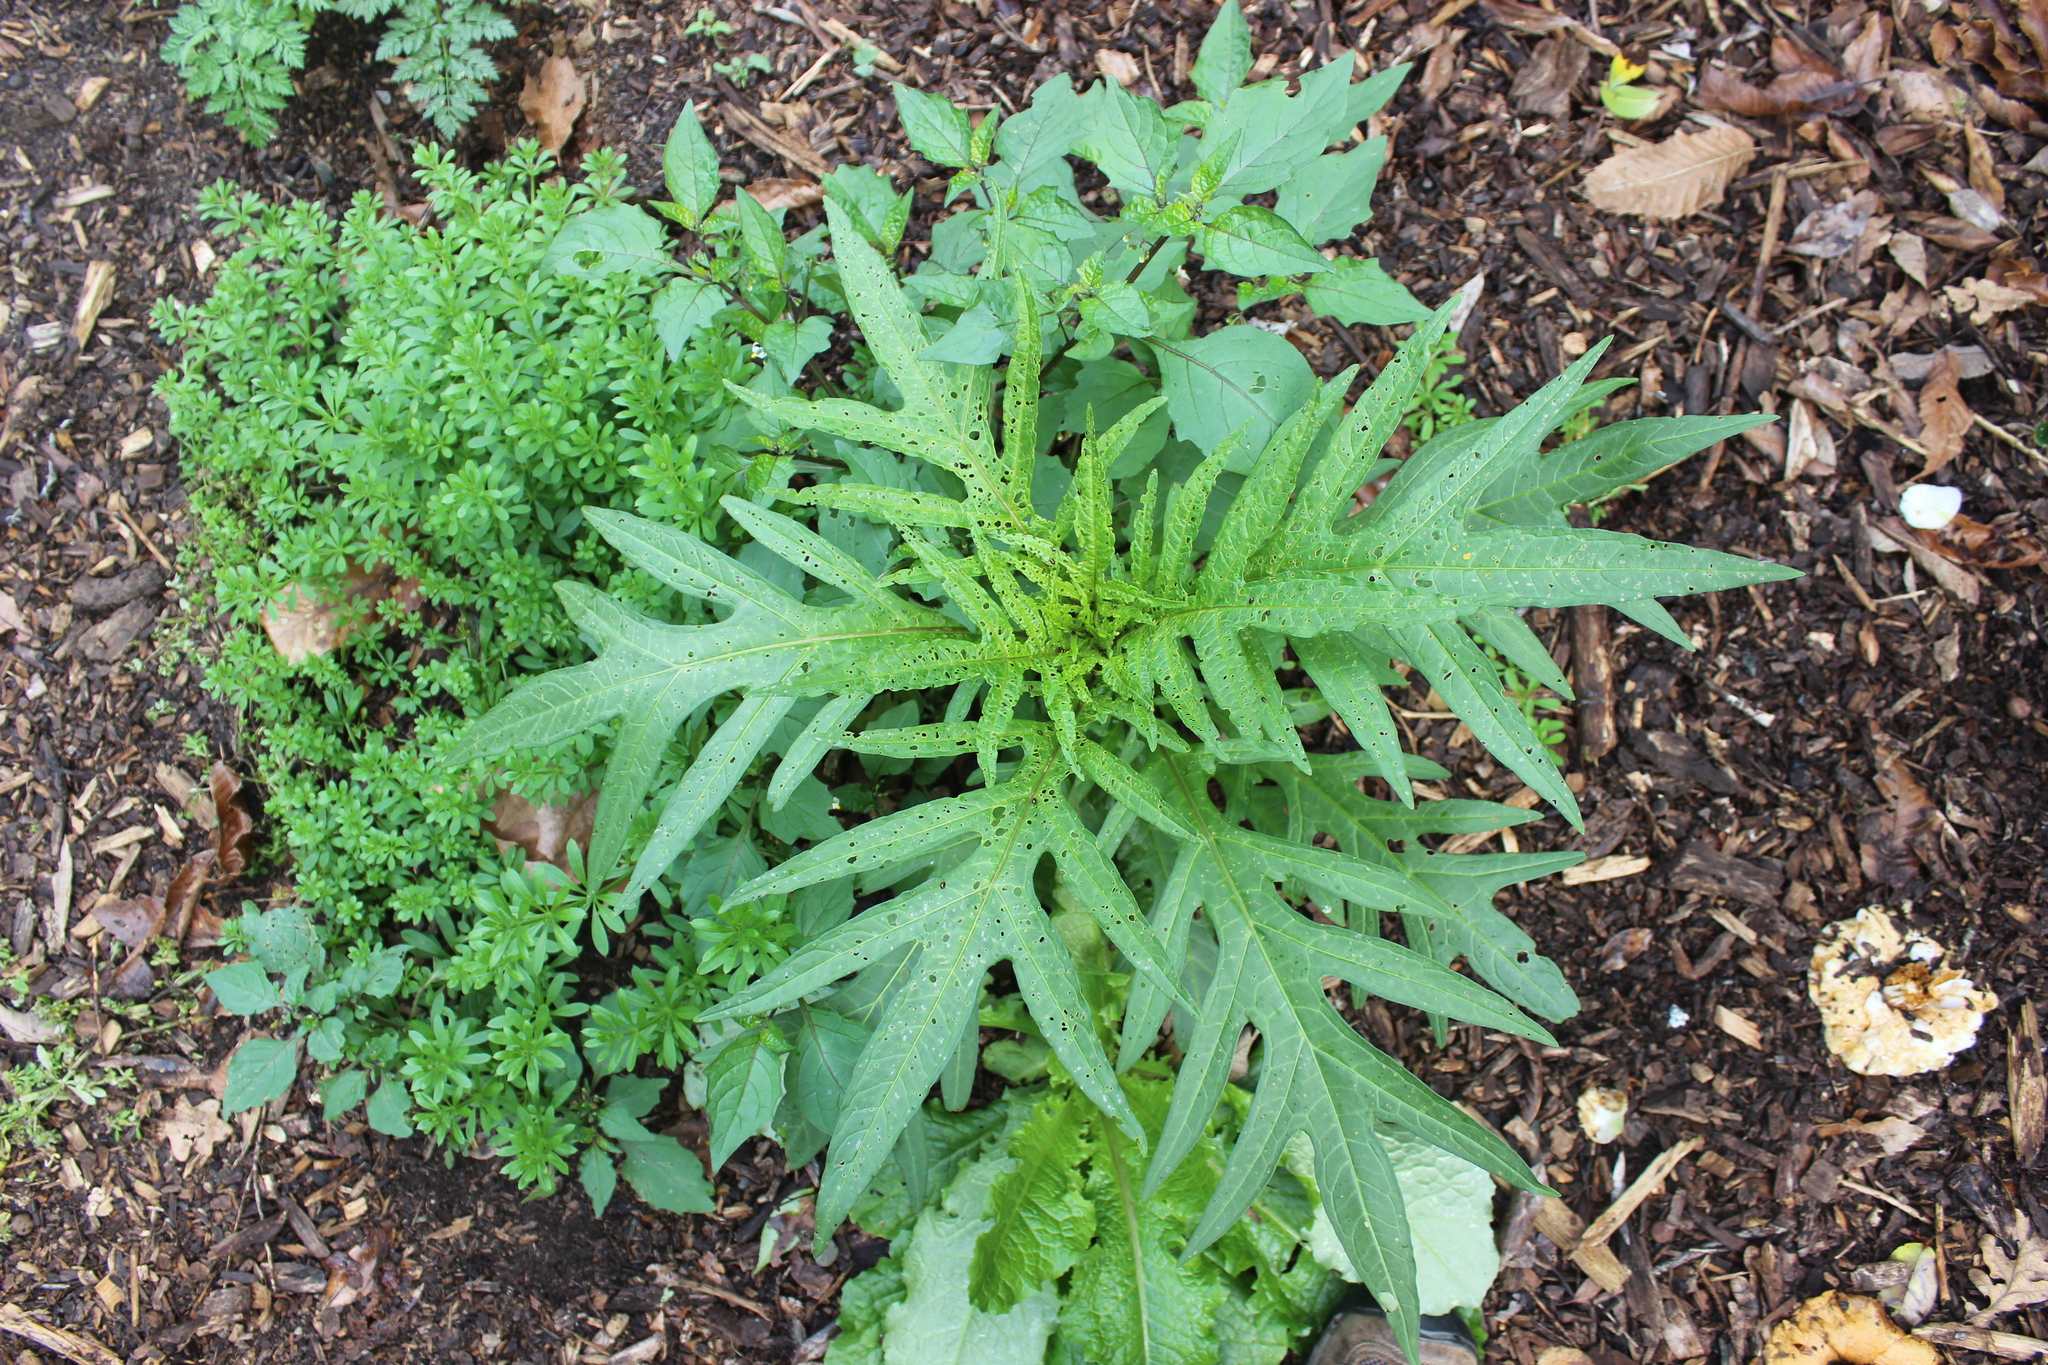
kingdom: Plantae
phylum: Tracheophyta
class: Magnoliopsida
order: Solanales
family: Solanaceae
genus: Solanum
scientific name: Solanum
